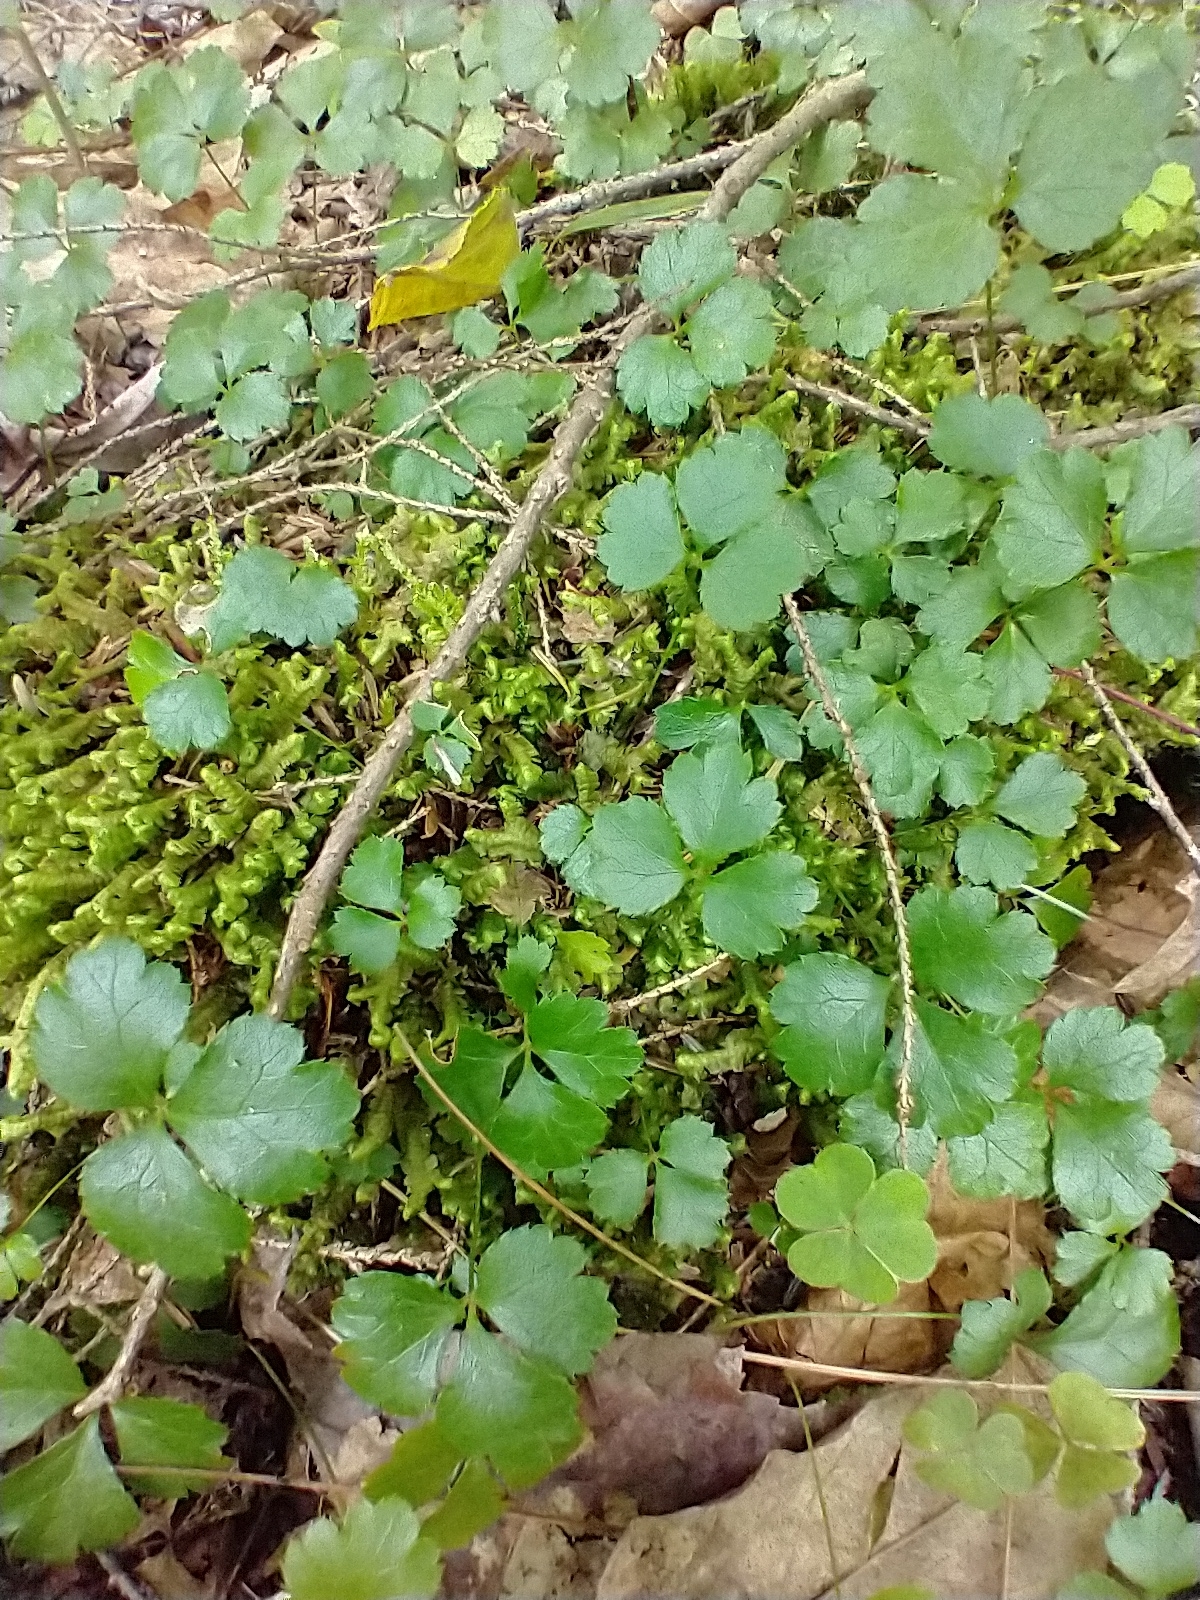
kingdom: Plantae
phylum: Tracheophyta
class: Magnoliopsida
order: Ranunculales
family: Ranunculaceae
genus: Coptis
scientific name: Coptis trifolia
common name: Canker-root
